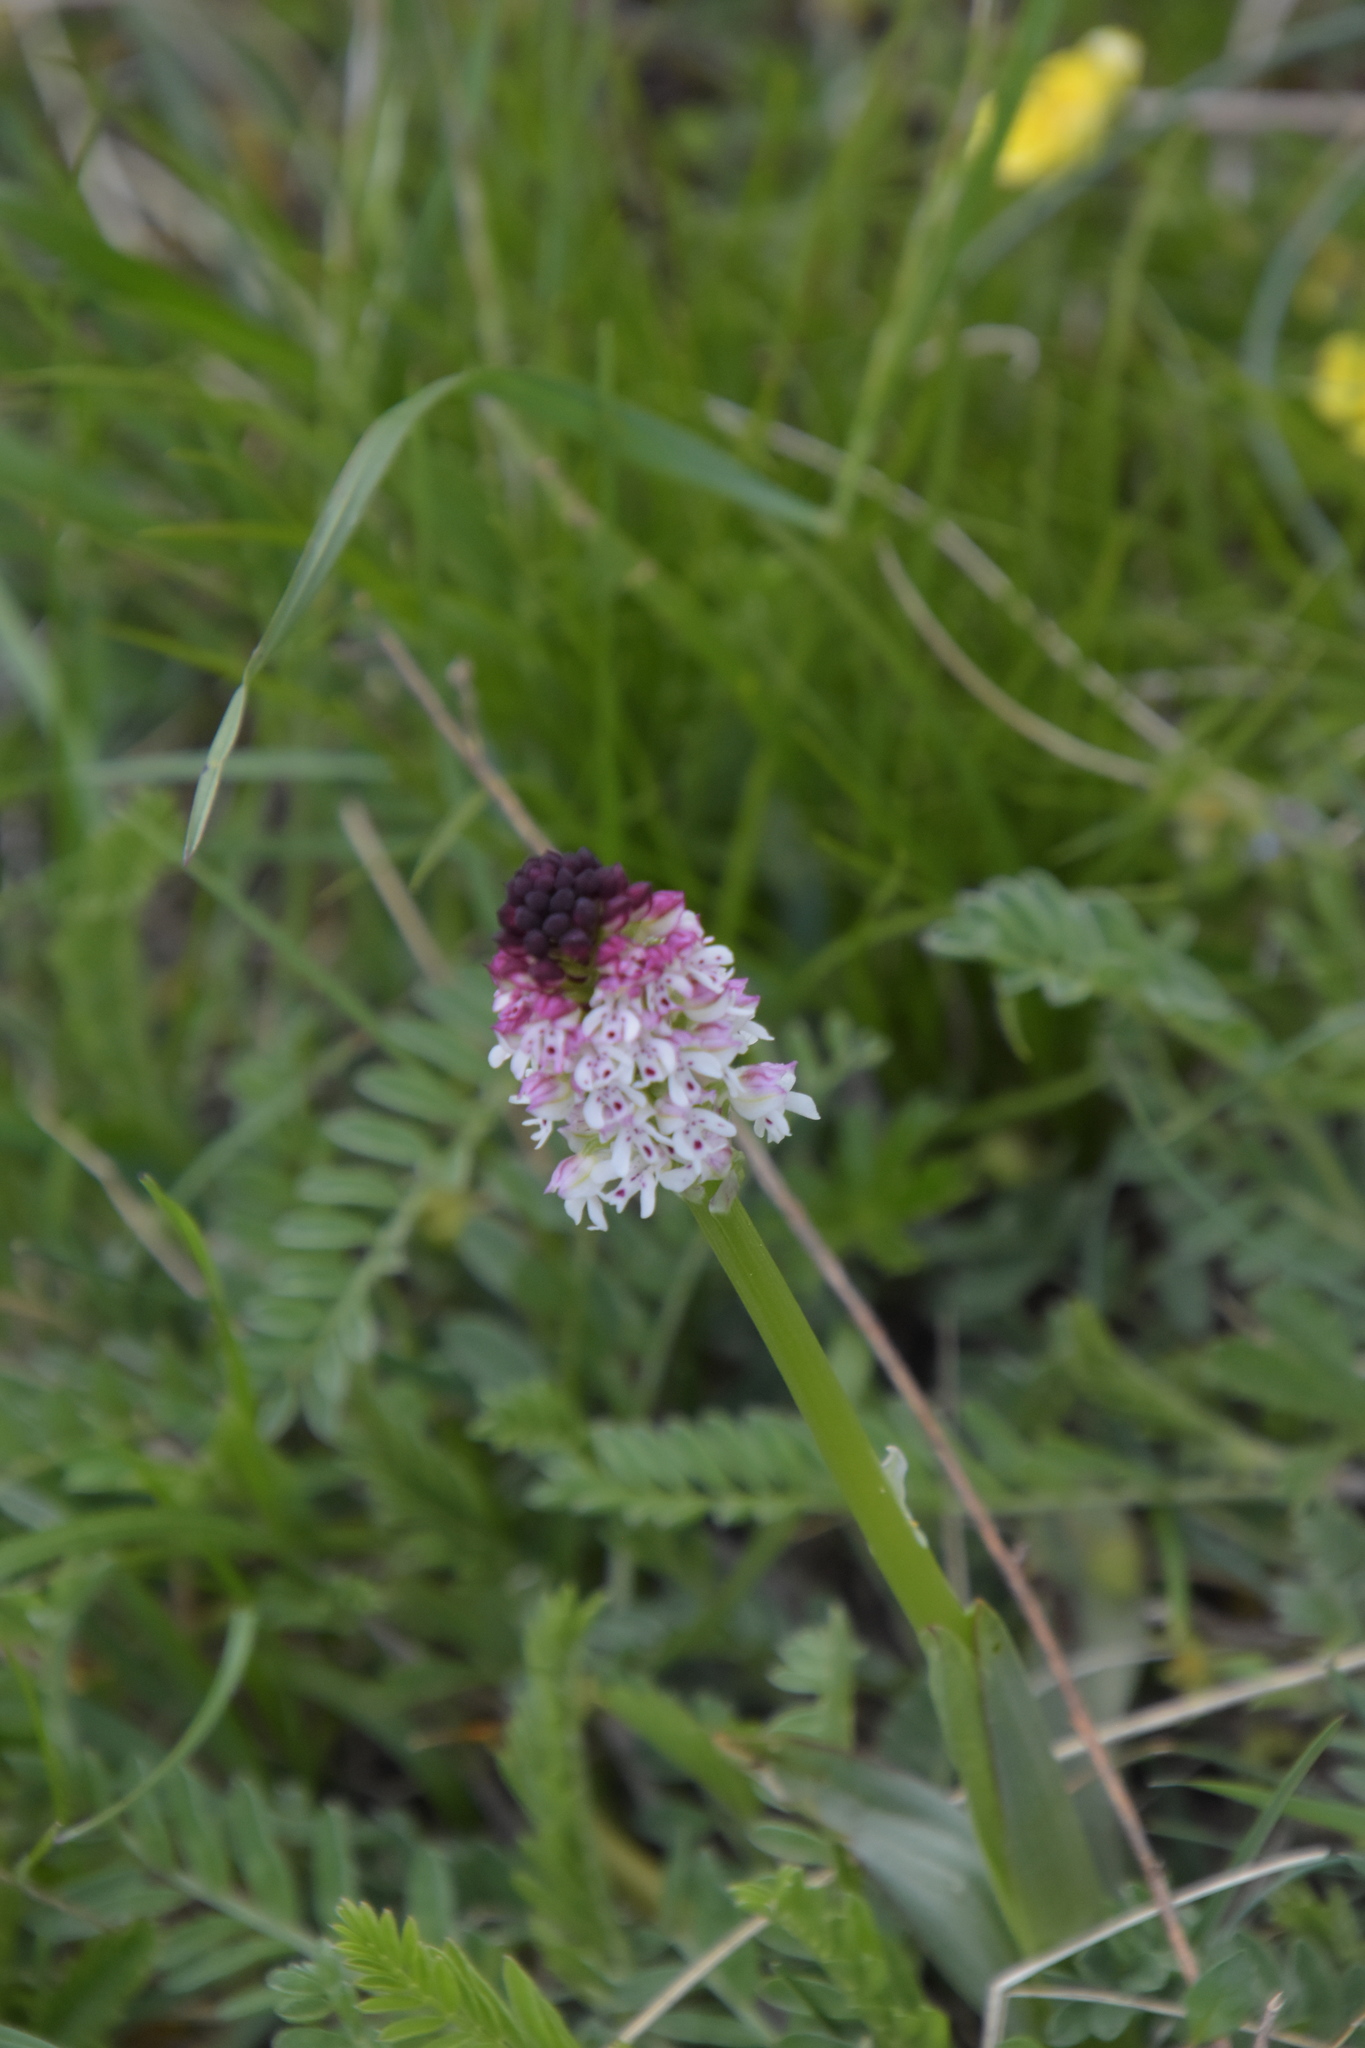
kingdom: Plantae
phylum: Tracheophyta
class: Liliopsida
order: Asparagales
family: Orchidaceae
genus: Neotinea
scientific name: Neotinea ustulata
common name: Burnt orchid
